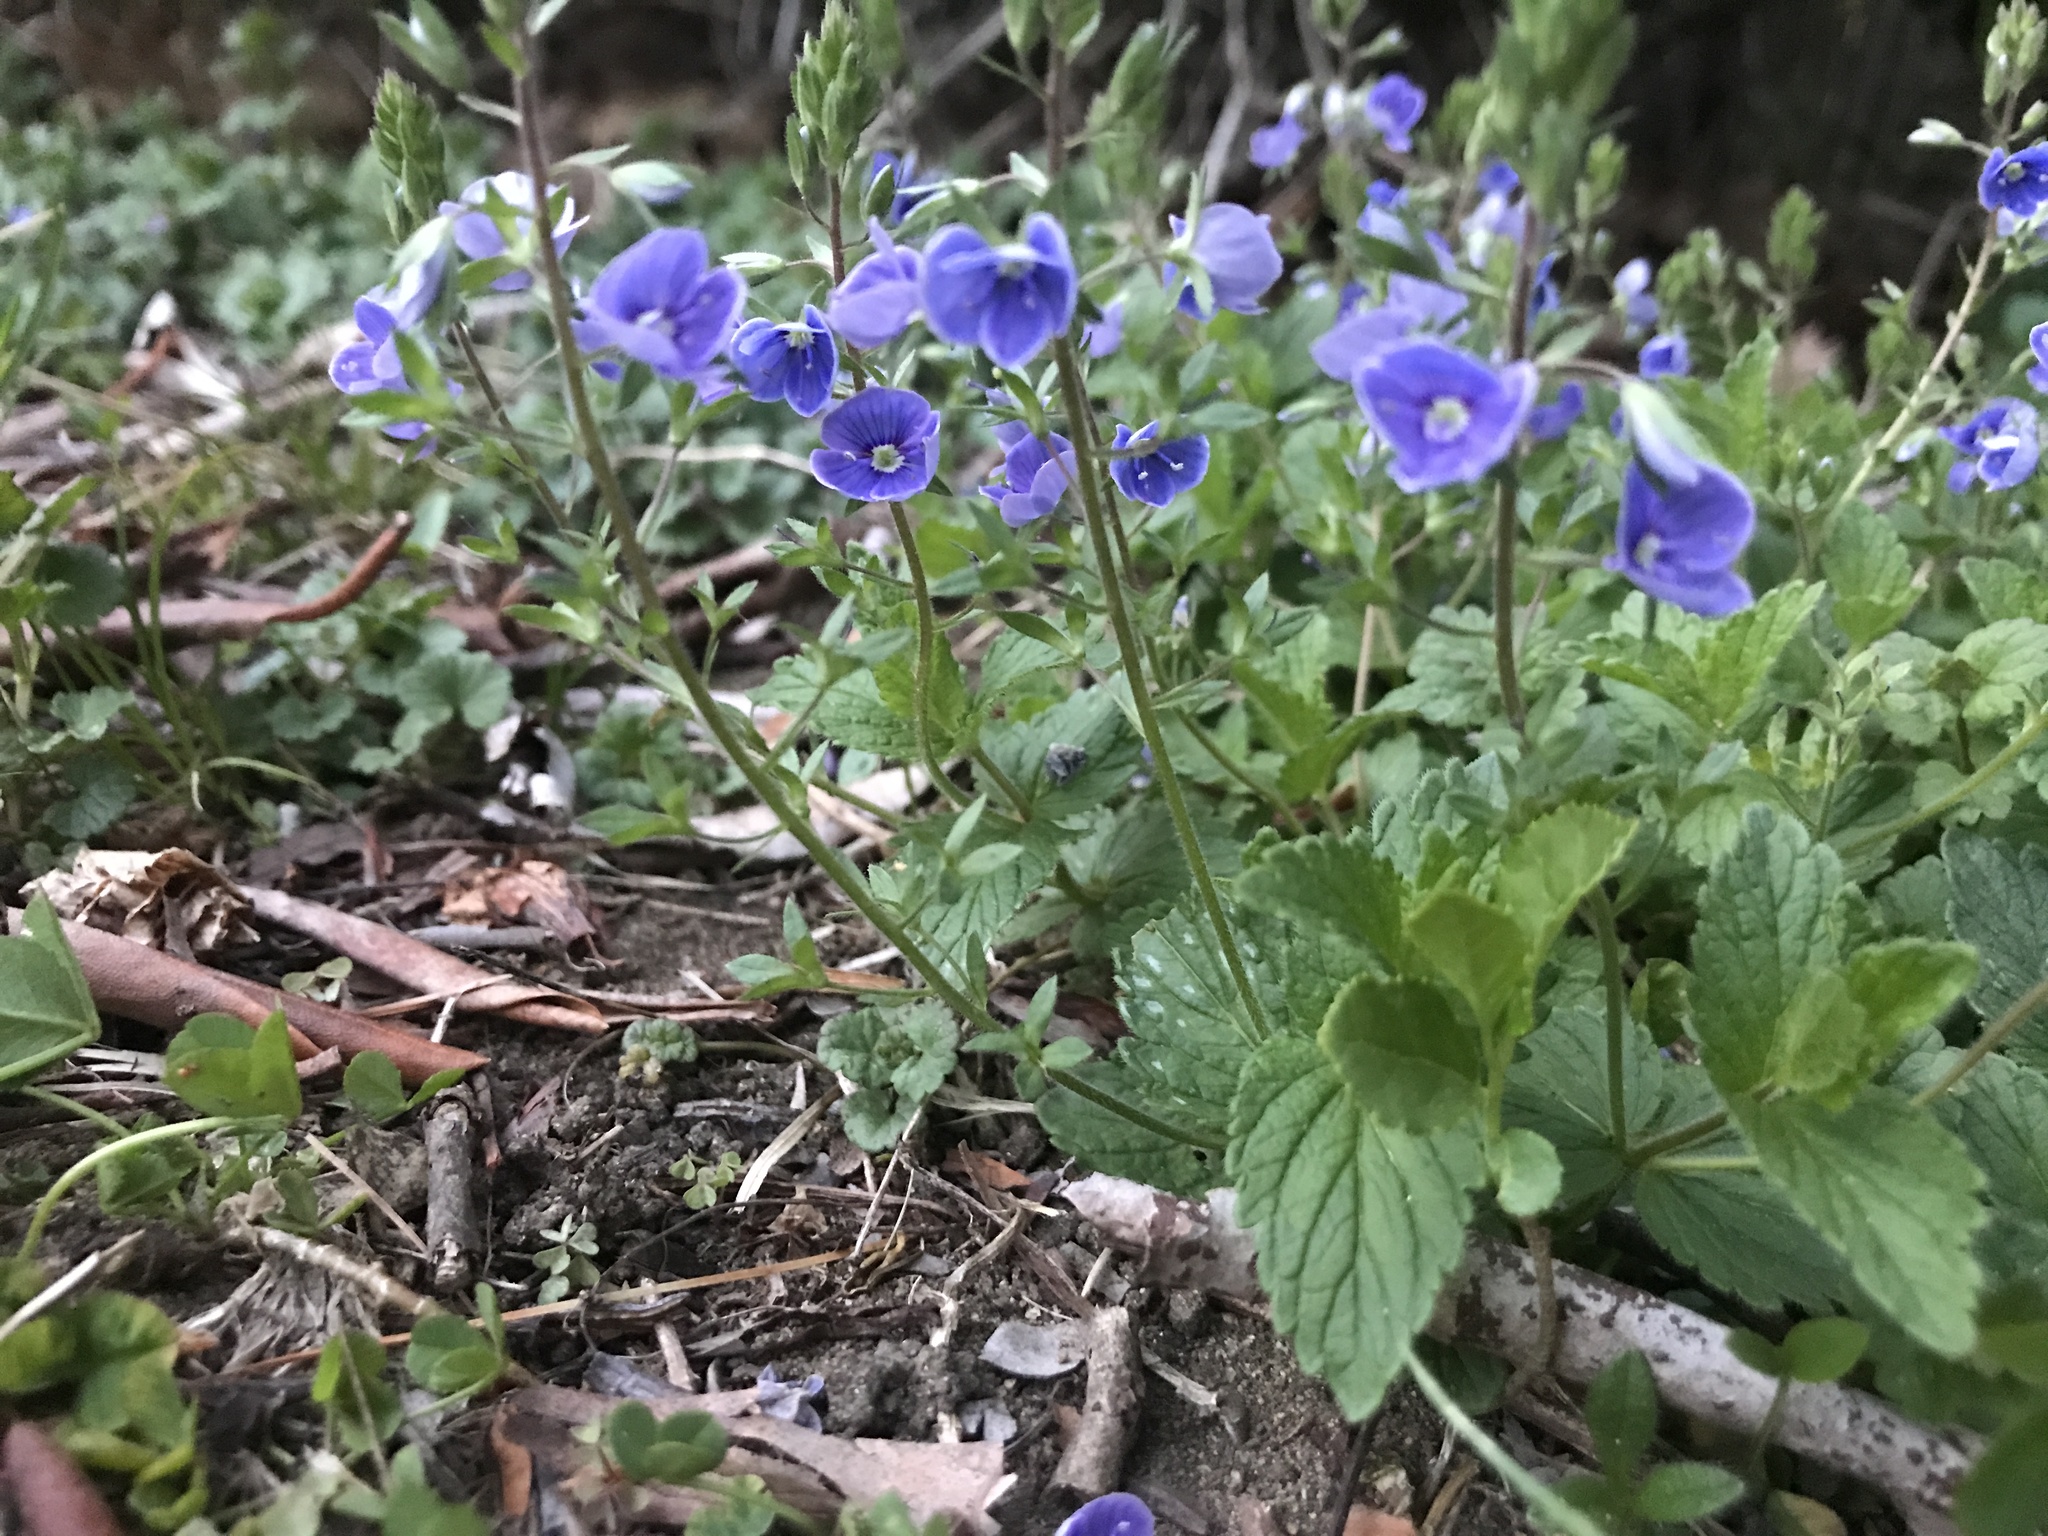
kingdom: Plantae
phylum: Tracheophyta
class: Magnoliopsida
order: Lamiales
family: Plantaginaceae
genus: Veronica
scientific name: Veronica chamaedrys
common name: Germander speedwell
